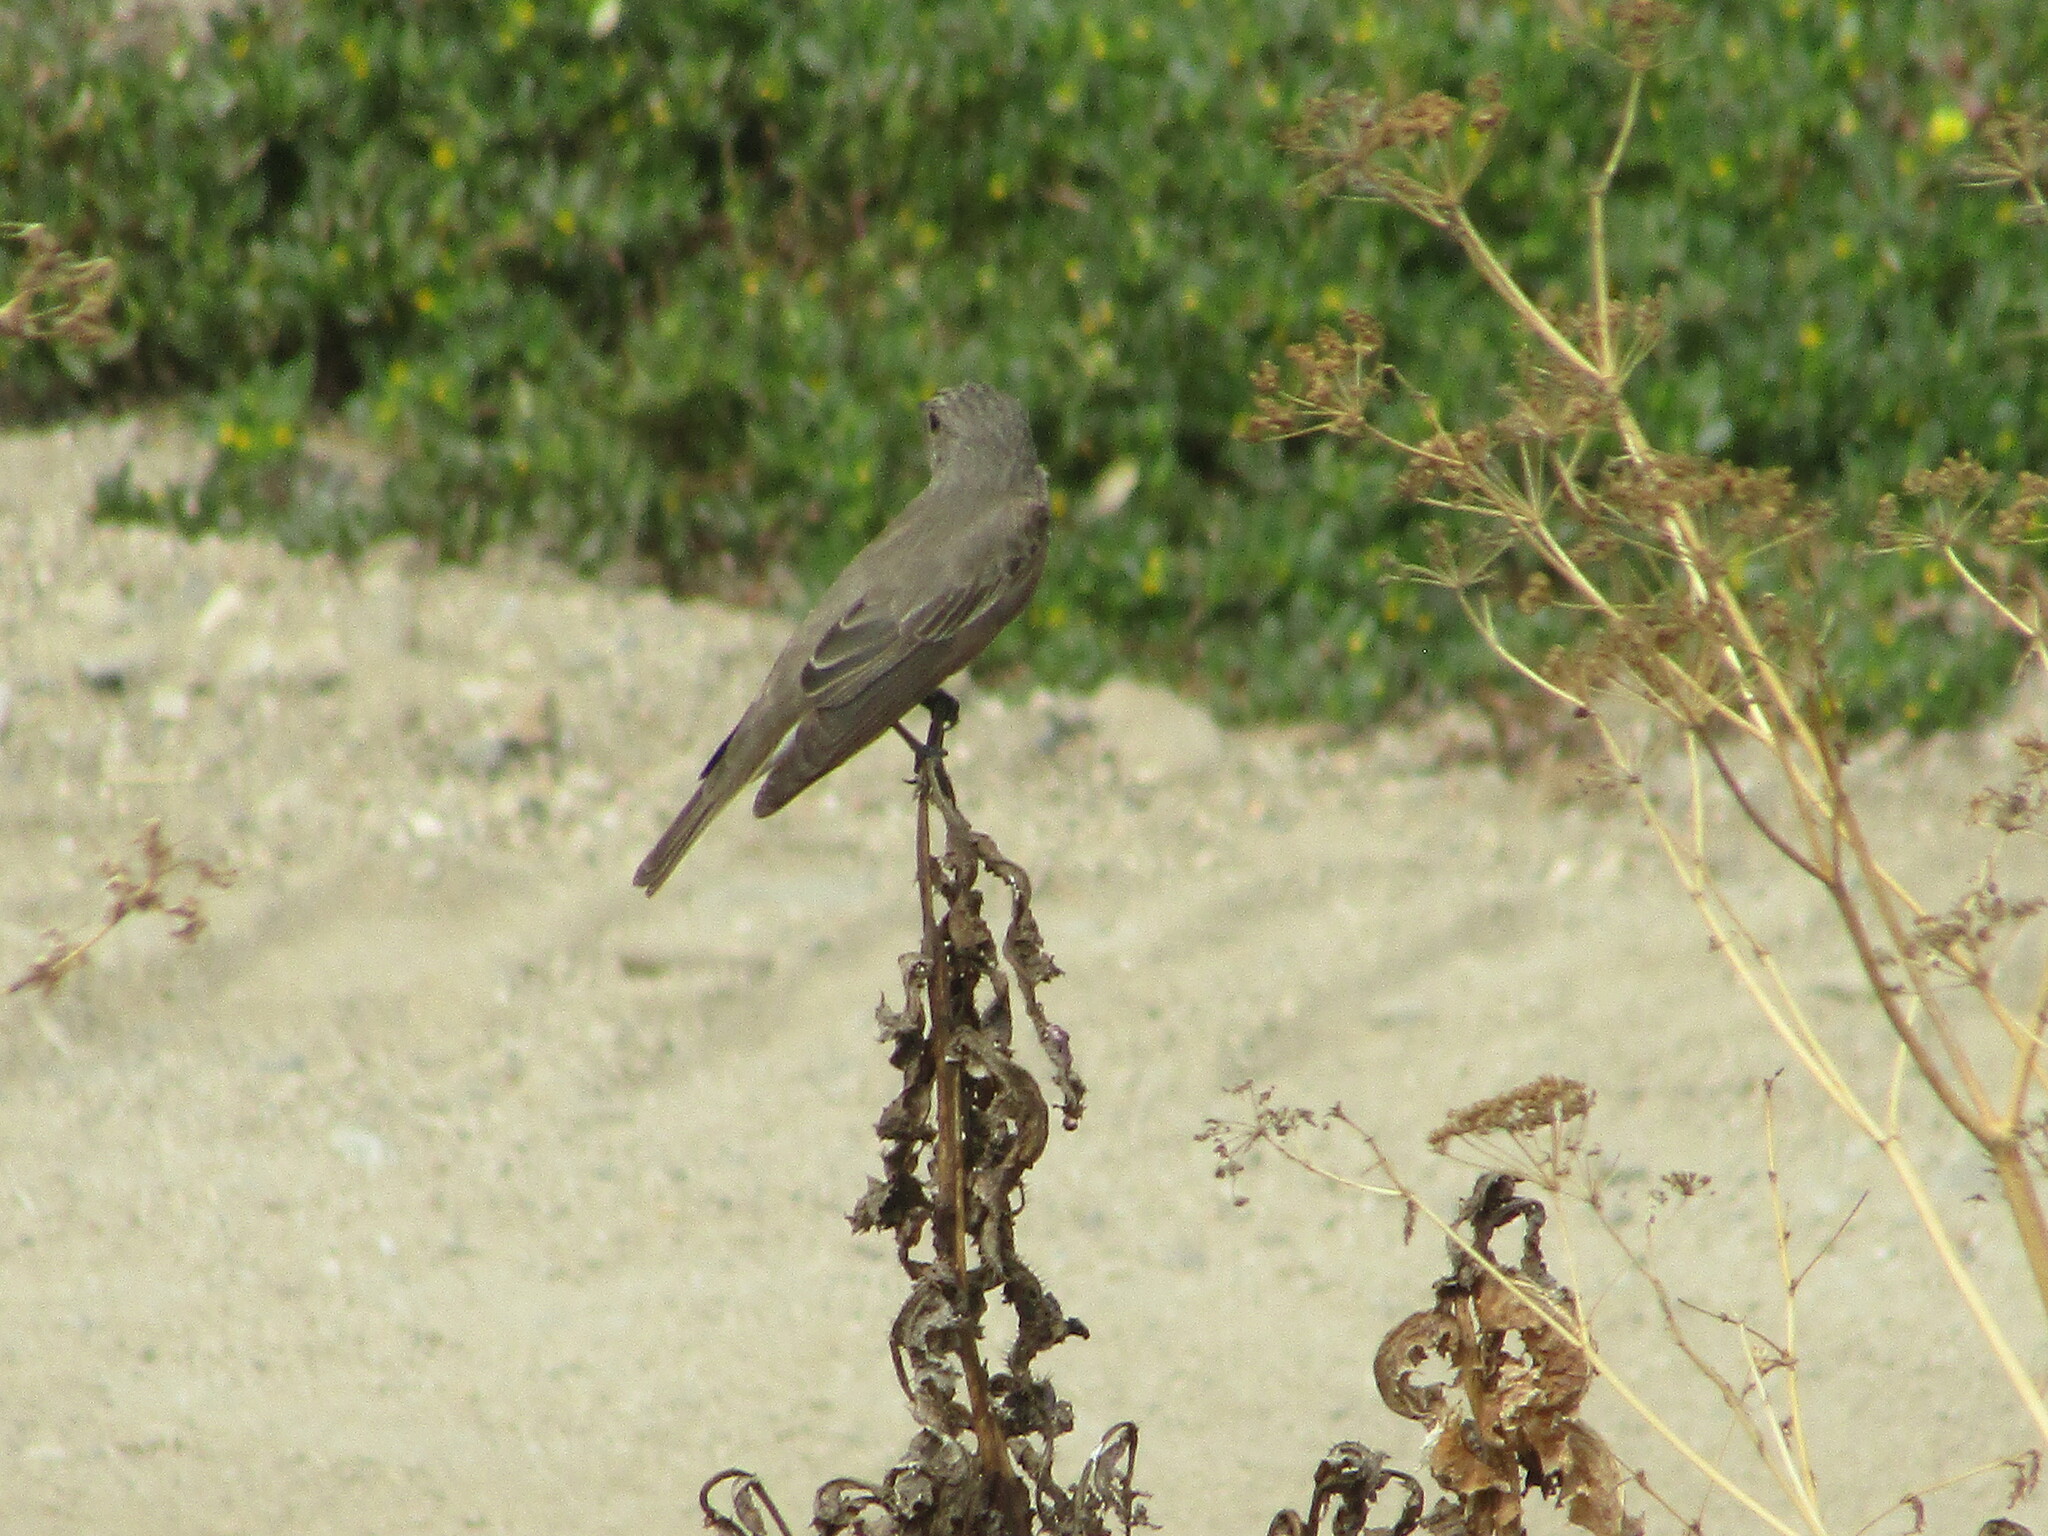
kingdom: Animalia
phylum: Chordata
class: Aves
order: Passeriformes
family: Muscicapidae
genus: Muscicapa
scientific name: Muscicapa striata
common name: Spotted flycatcher
